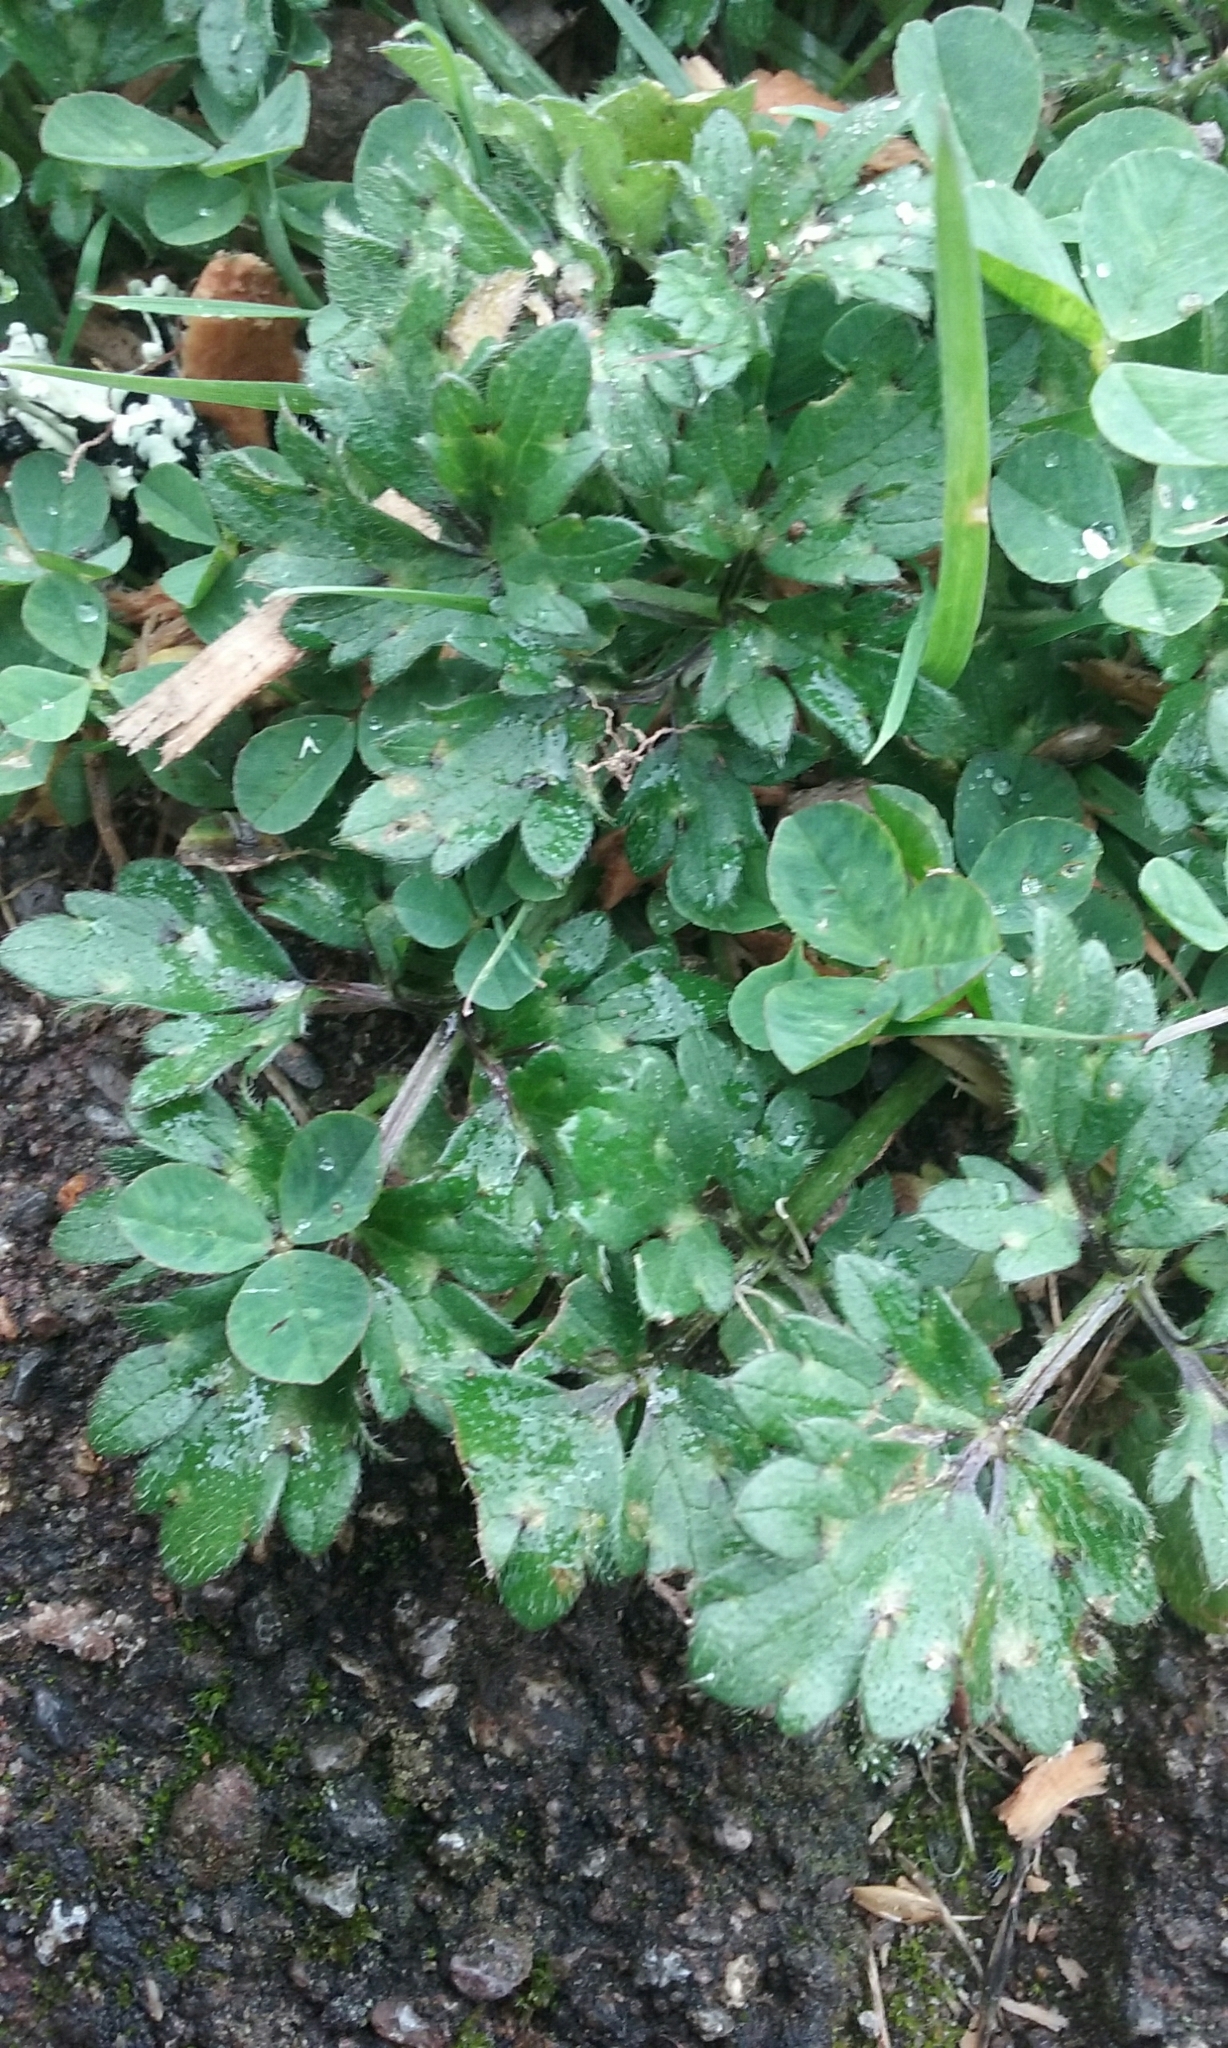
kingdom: Plantae
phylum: Tracheophyta
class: Magnoliopsida
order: Ranunculales
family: Ranunculaceae
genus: Ranunculus
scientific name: Ranunculus repens
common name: Creeping buttercup
